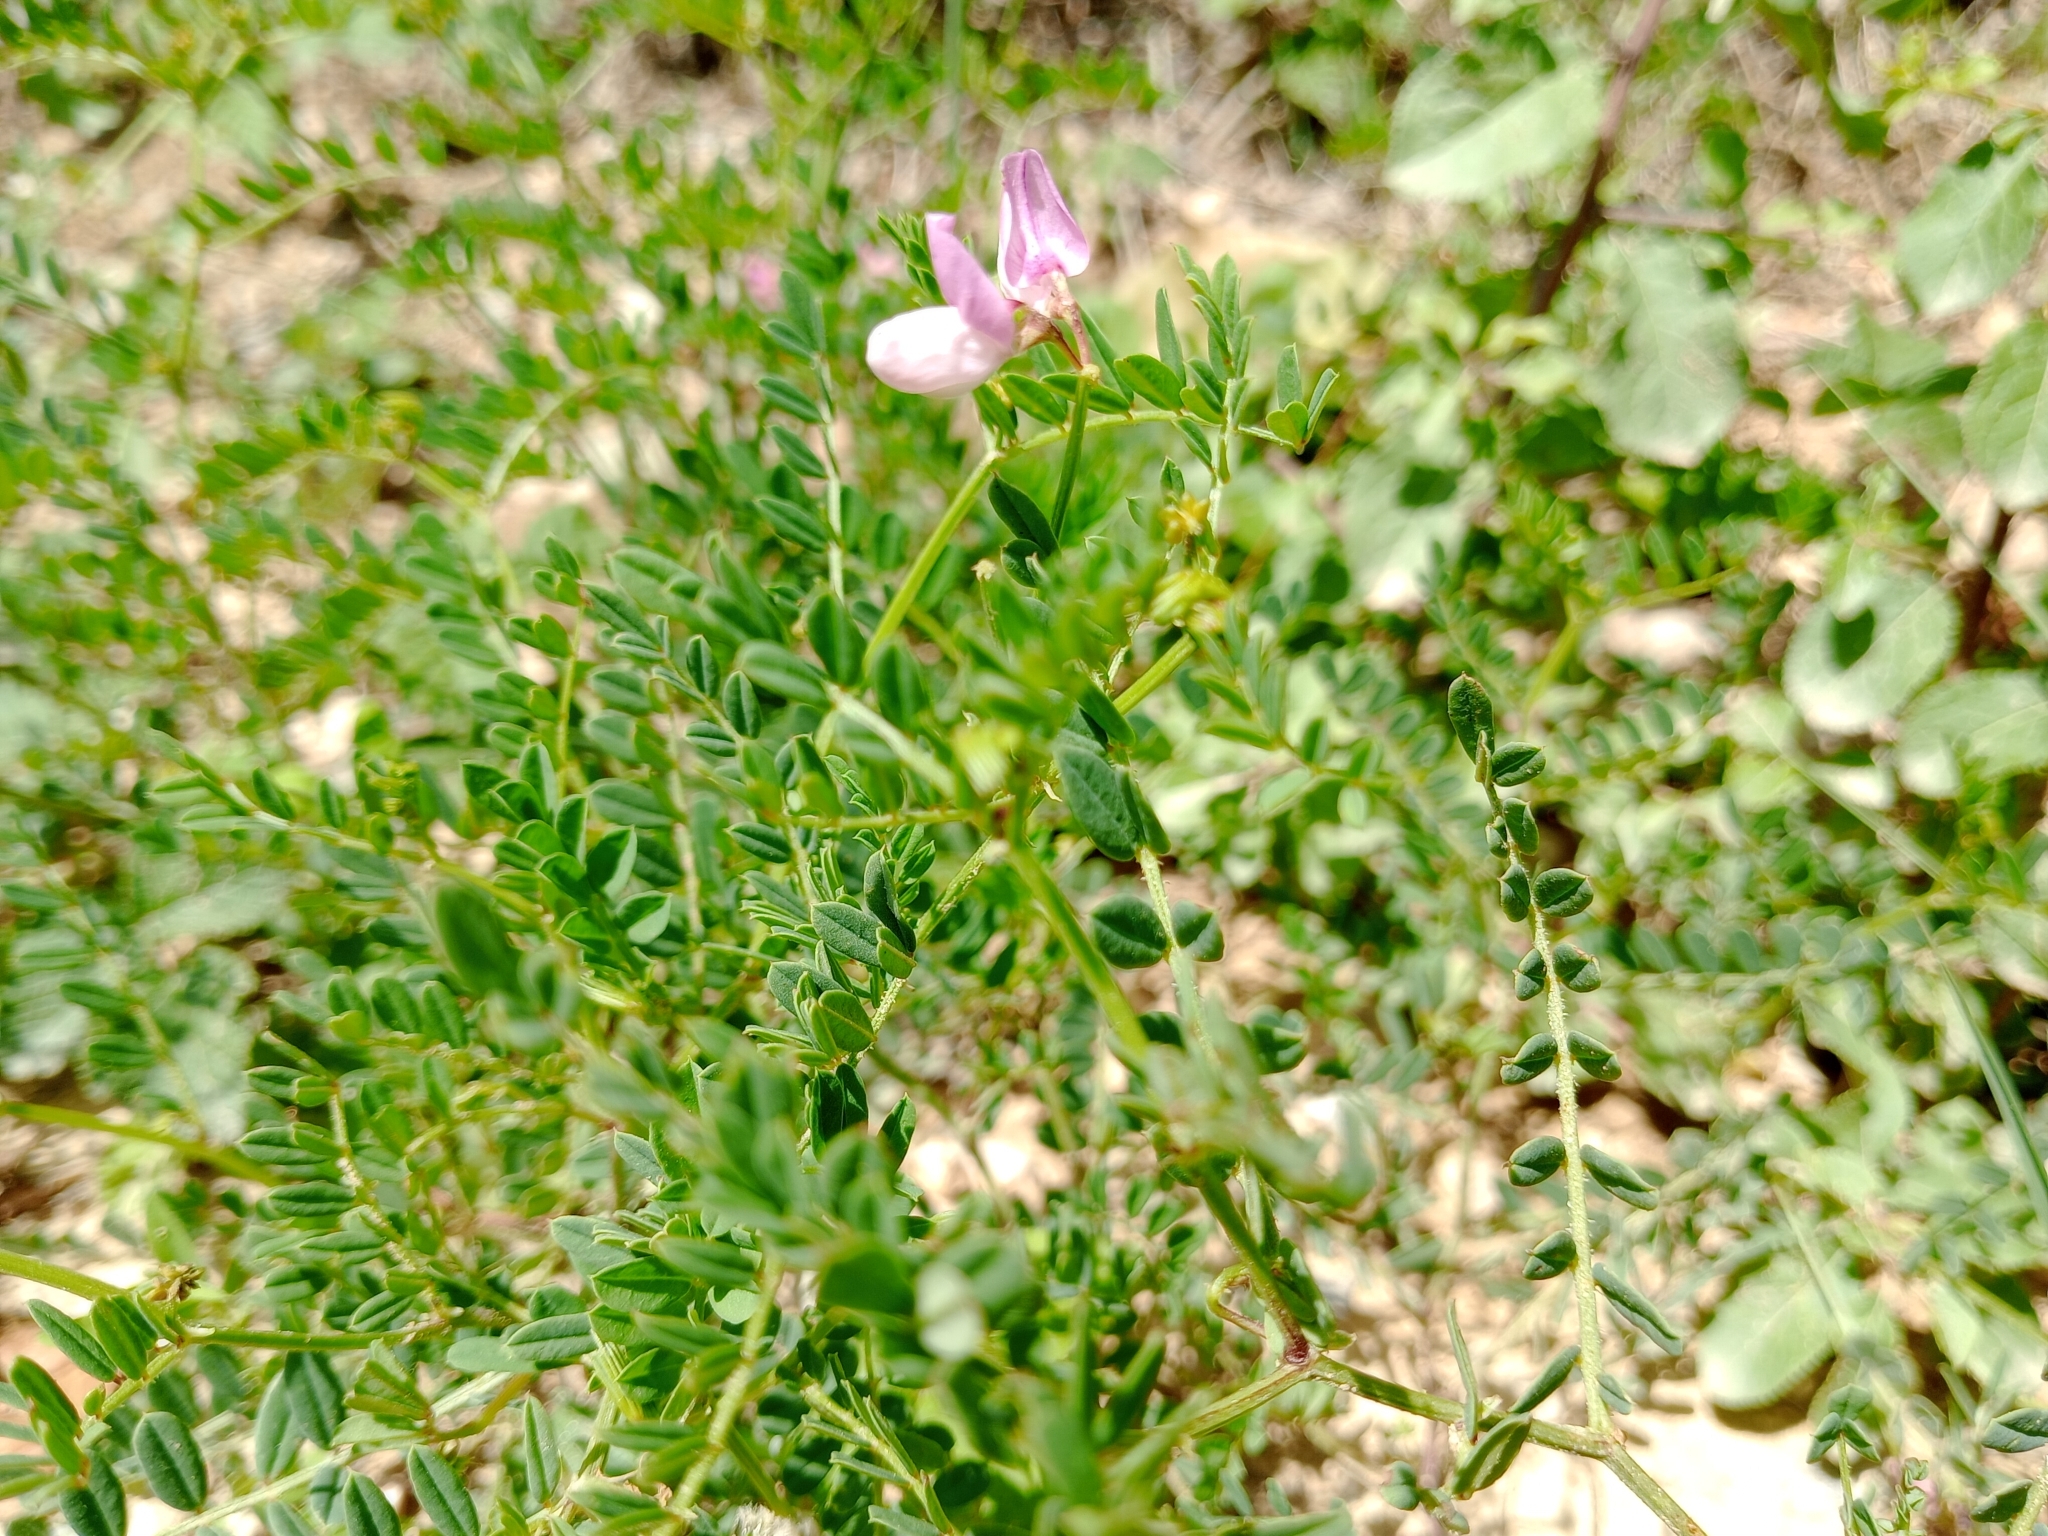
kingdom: Plantae
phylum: Tracheophyta
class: Magnoliopsida
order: Fabales
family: Fabaceae
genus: Coronilla
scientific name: Coronilla varia
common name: Crownvetch
